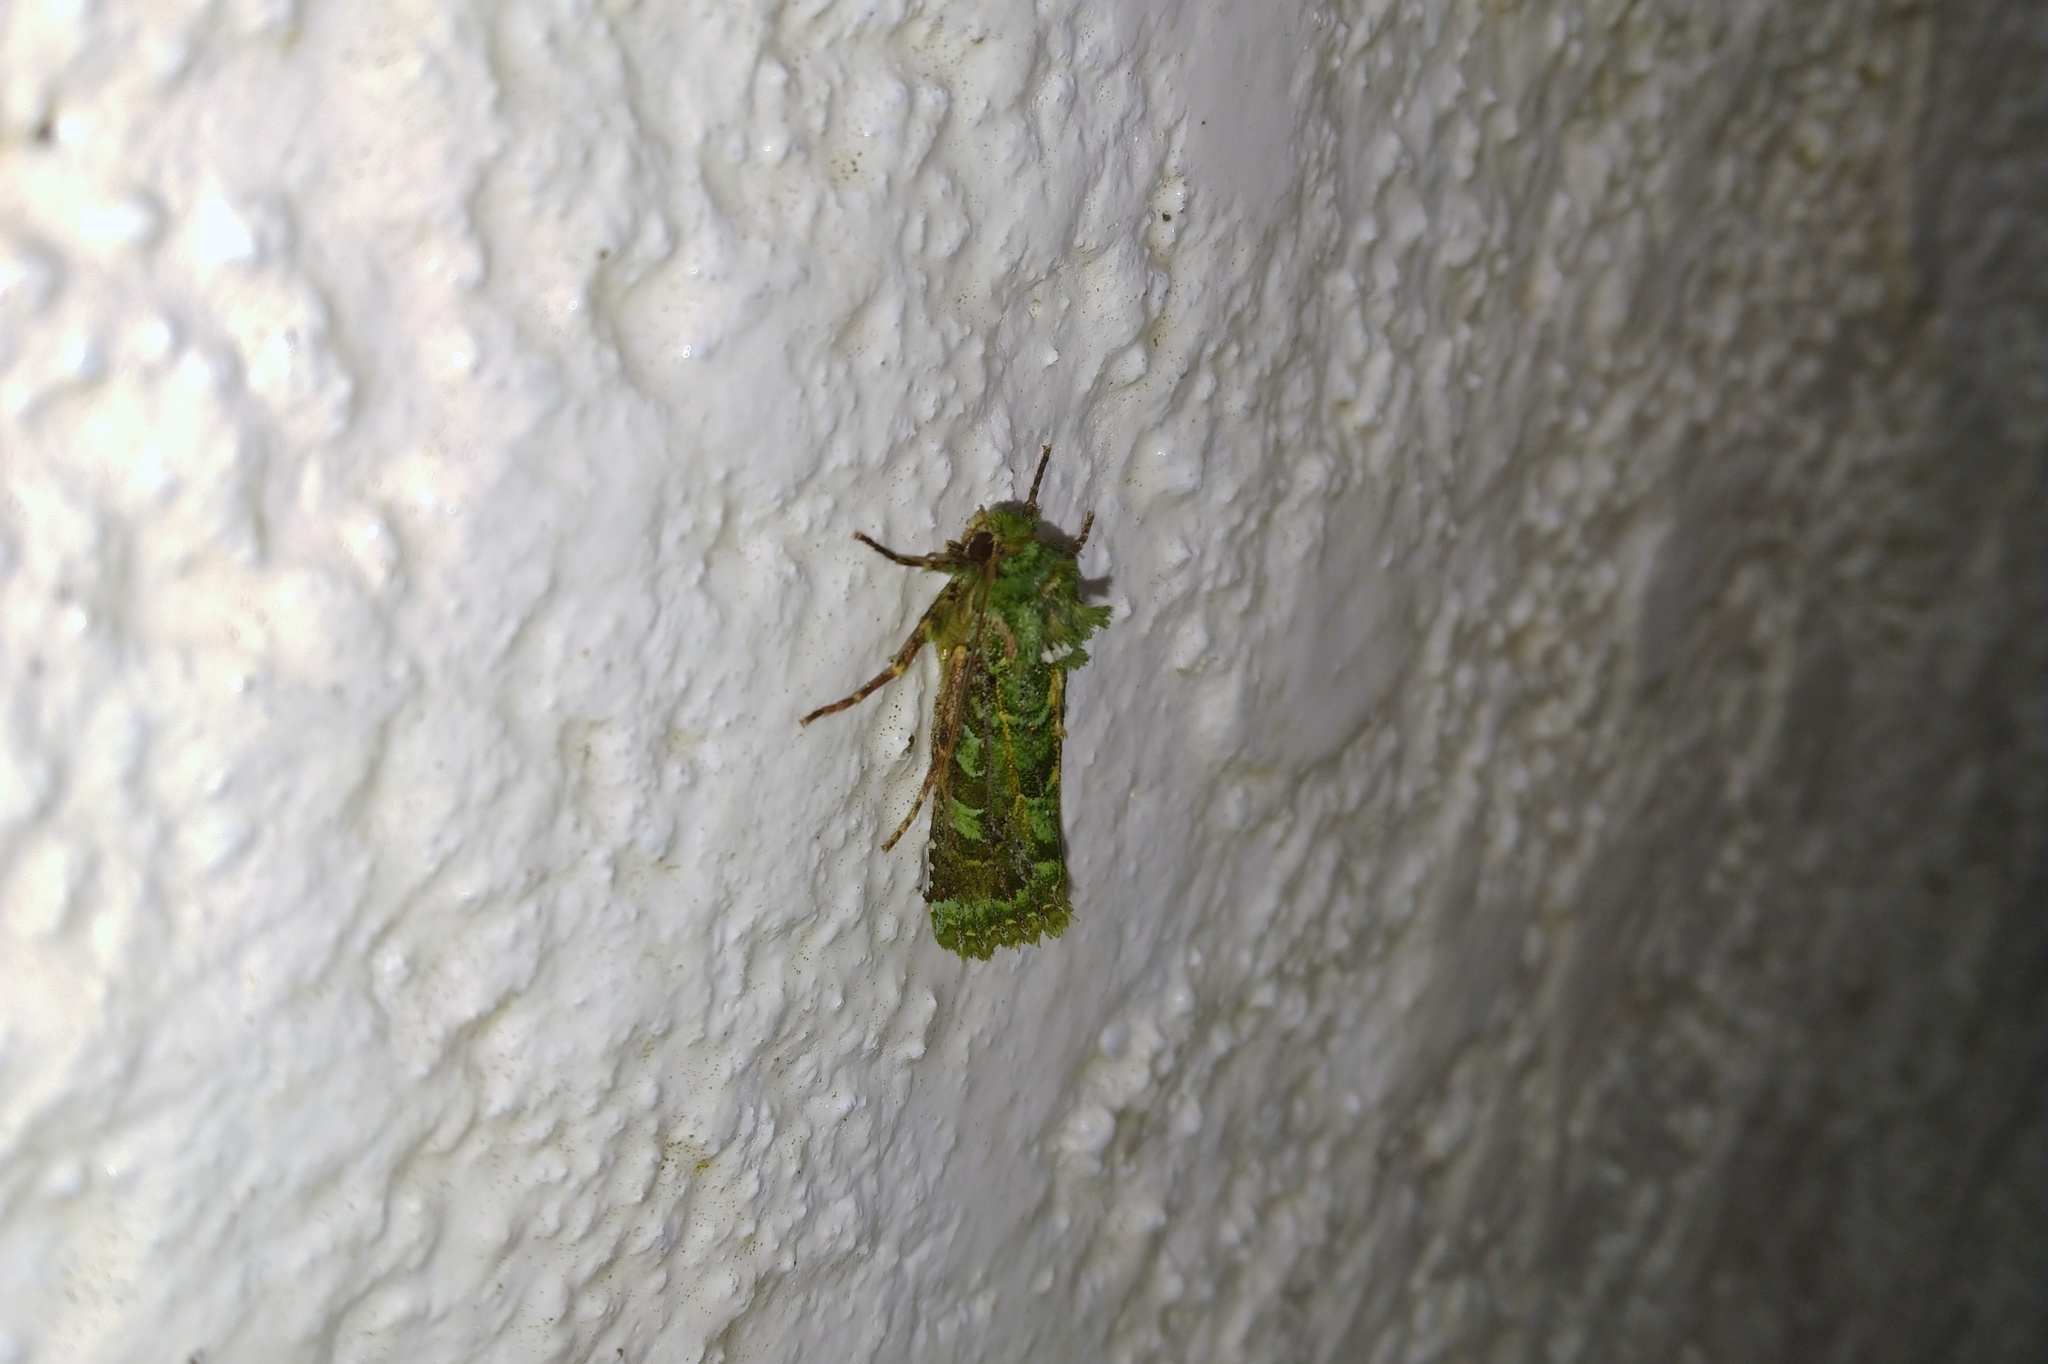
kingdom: Animalia
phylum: Arthropoda
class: Insecta
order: Lepidoptera
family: Noctuidae
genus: Feredayia
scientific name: Feredayia grammosa
